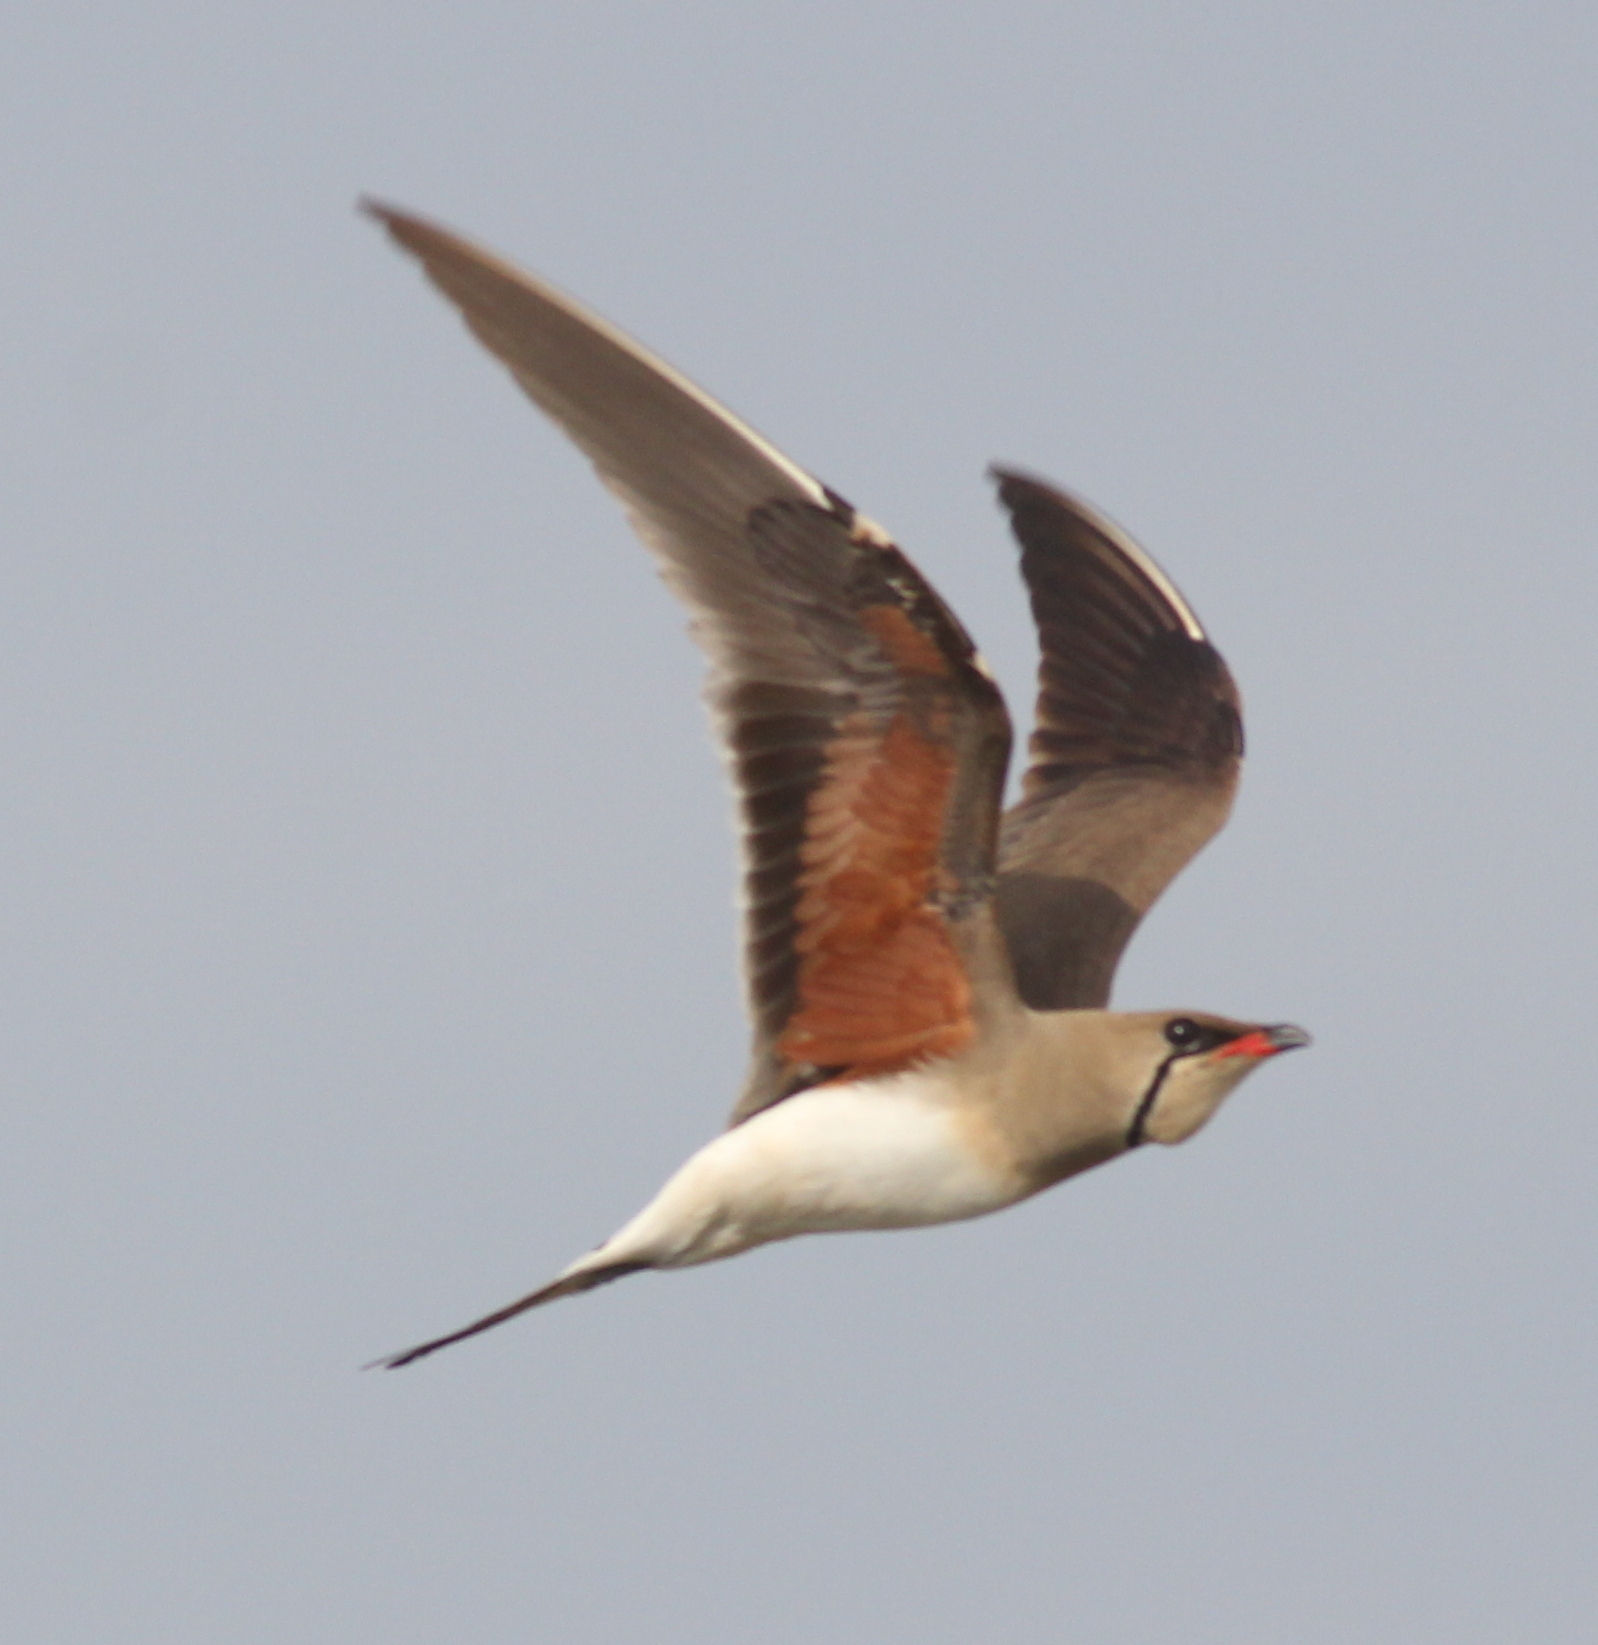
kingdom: Animalia
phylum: Chordata
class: Aves
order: Charadriiformes
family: Glareolidae
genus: Glareola
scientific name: Glareola pratincola
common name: Collared pratincole
